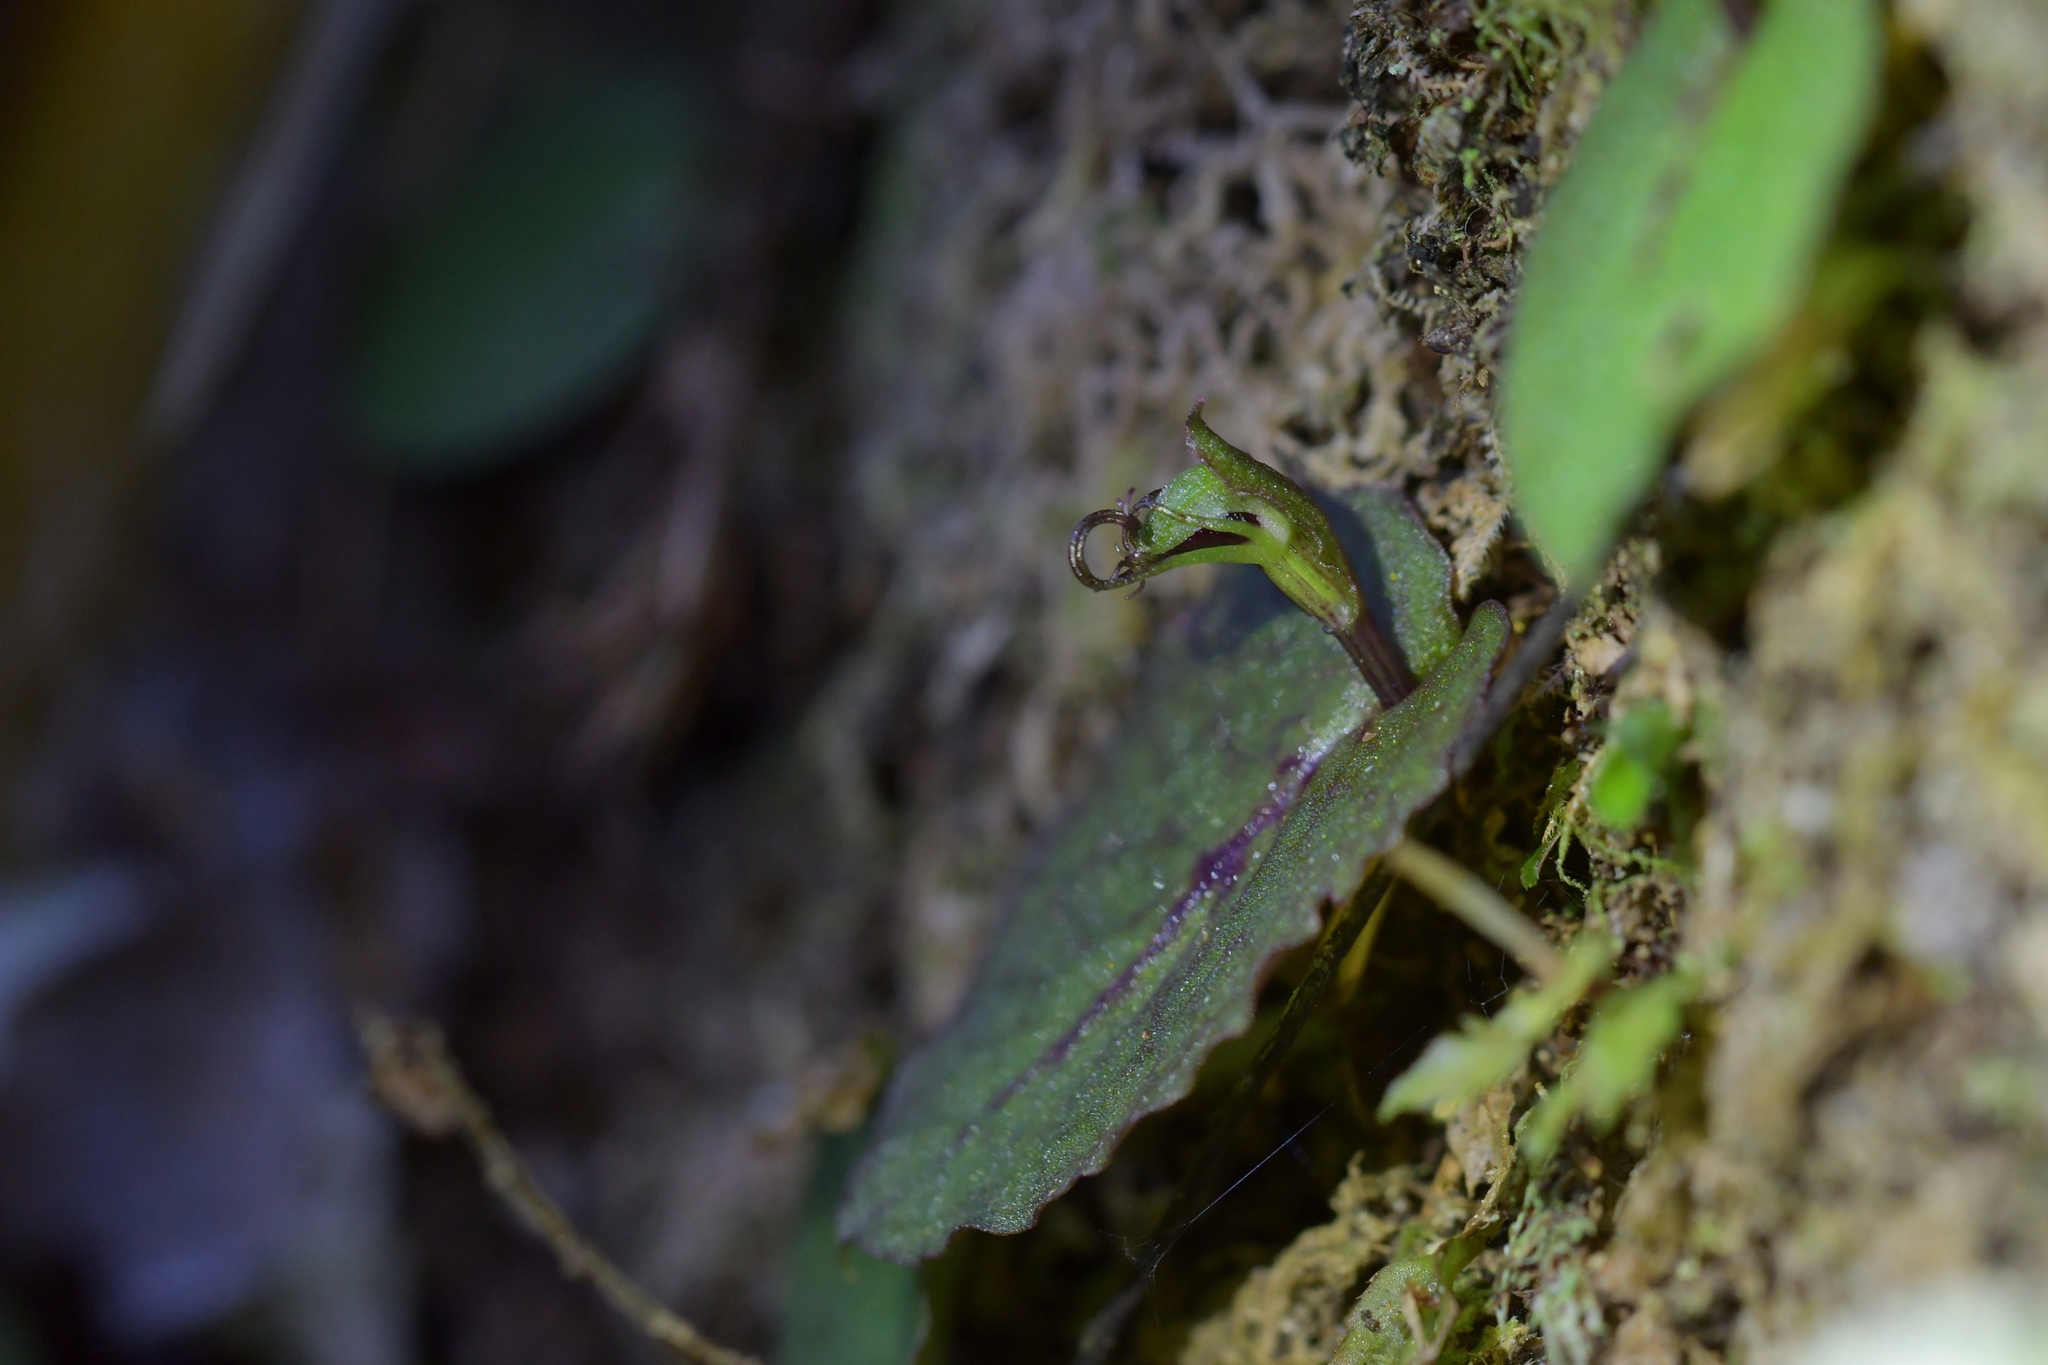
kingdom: Plantae
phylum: Tracheophyta
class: Liliopsida
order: Asparagales
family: Orchidaceae
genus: Corybas
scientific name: Corybas oblongus
